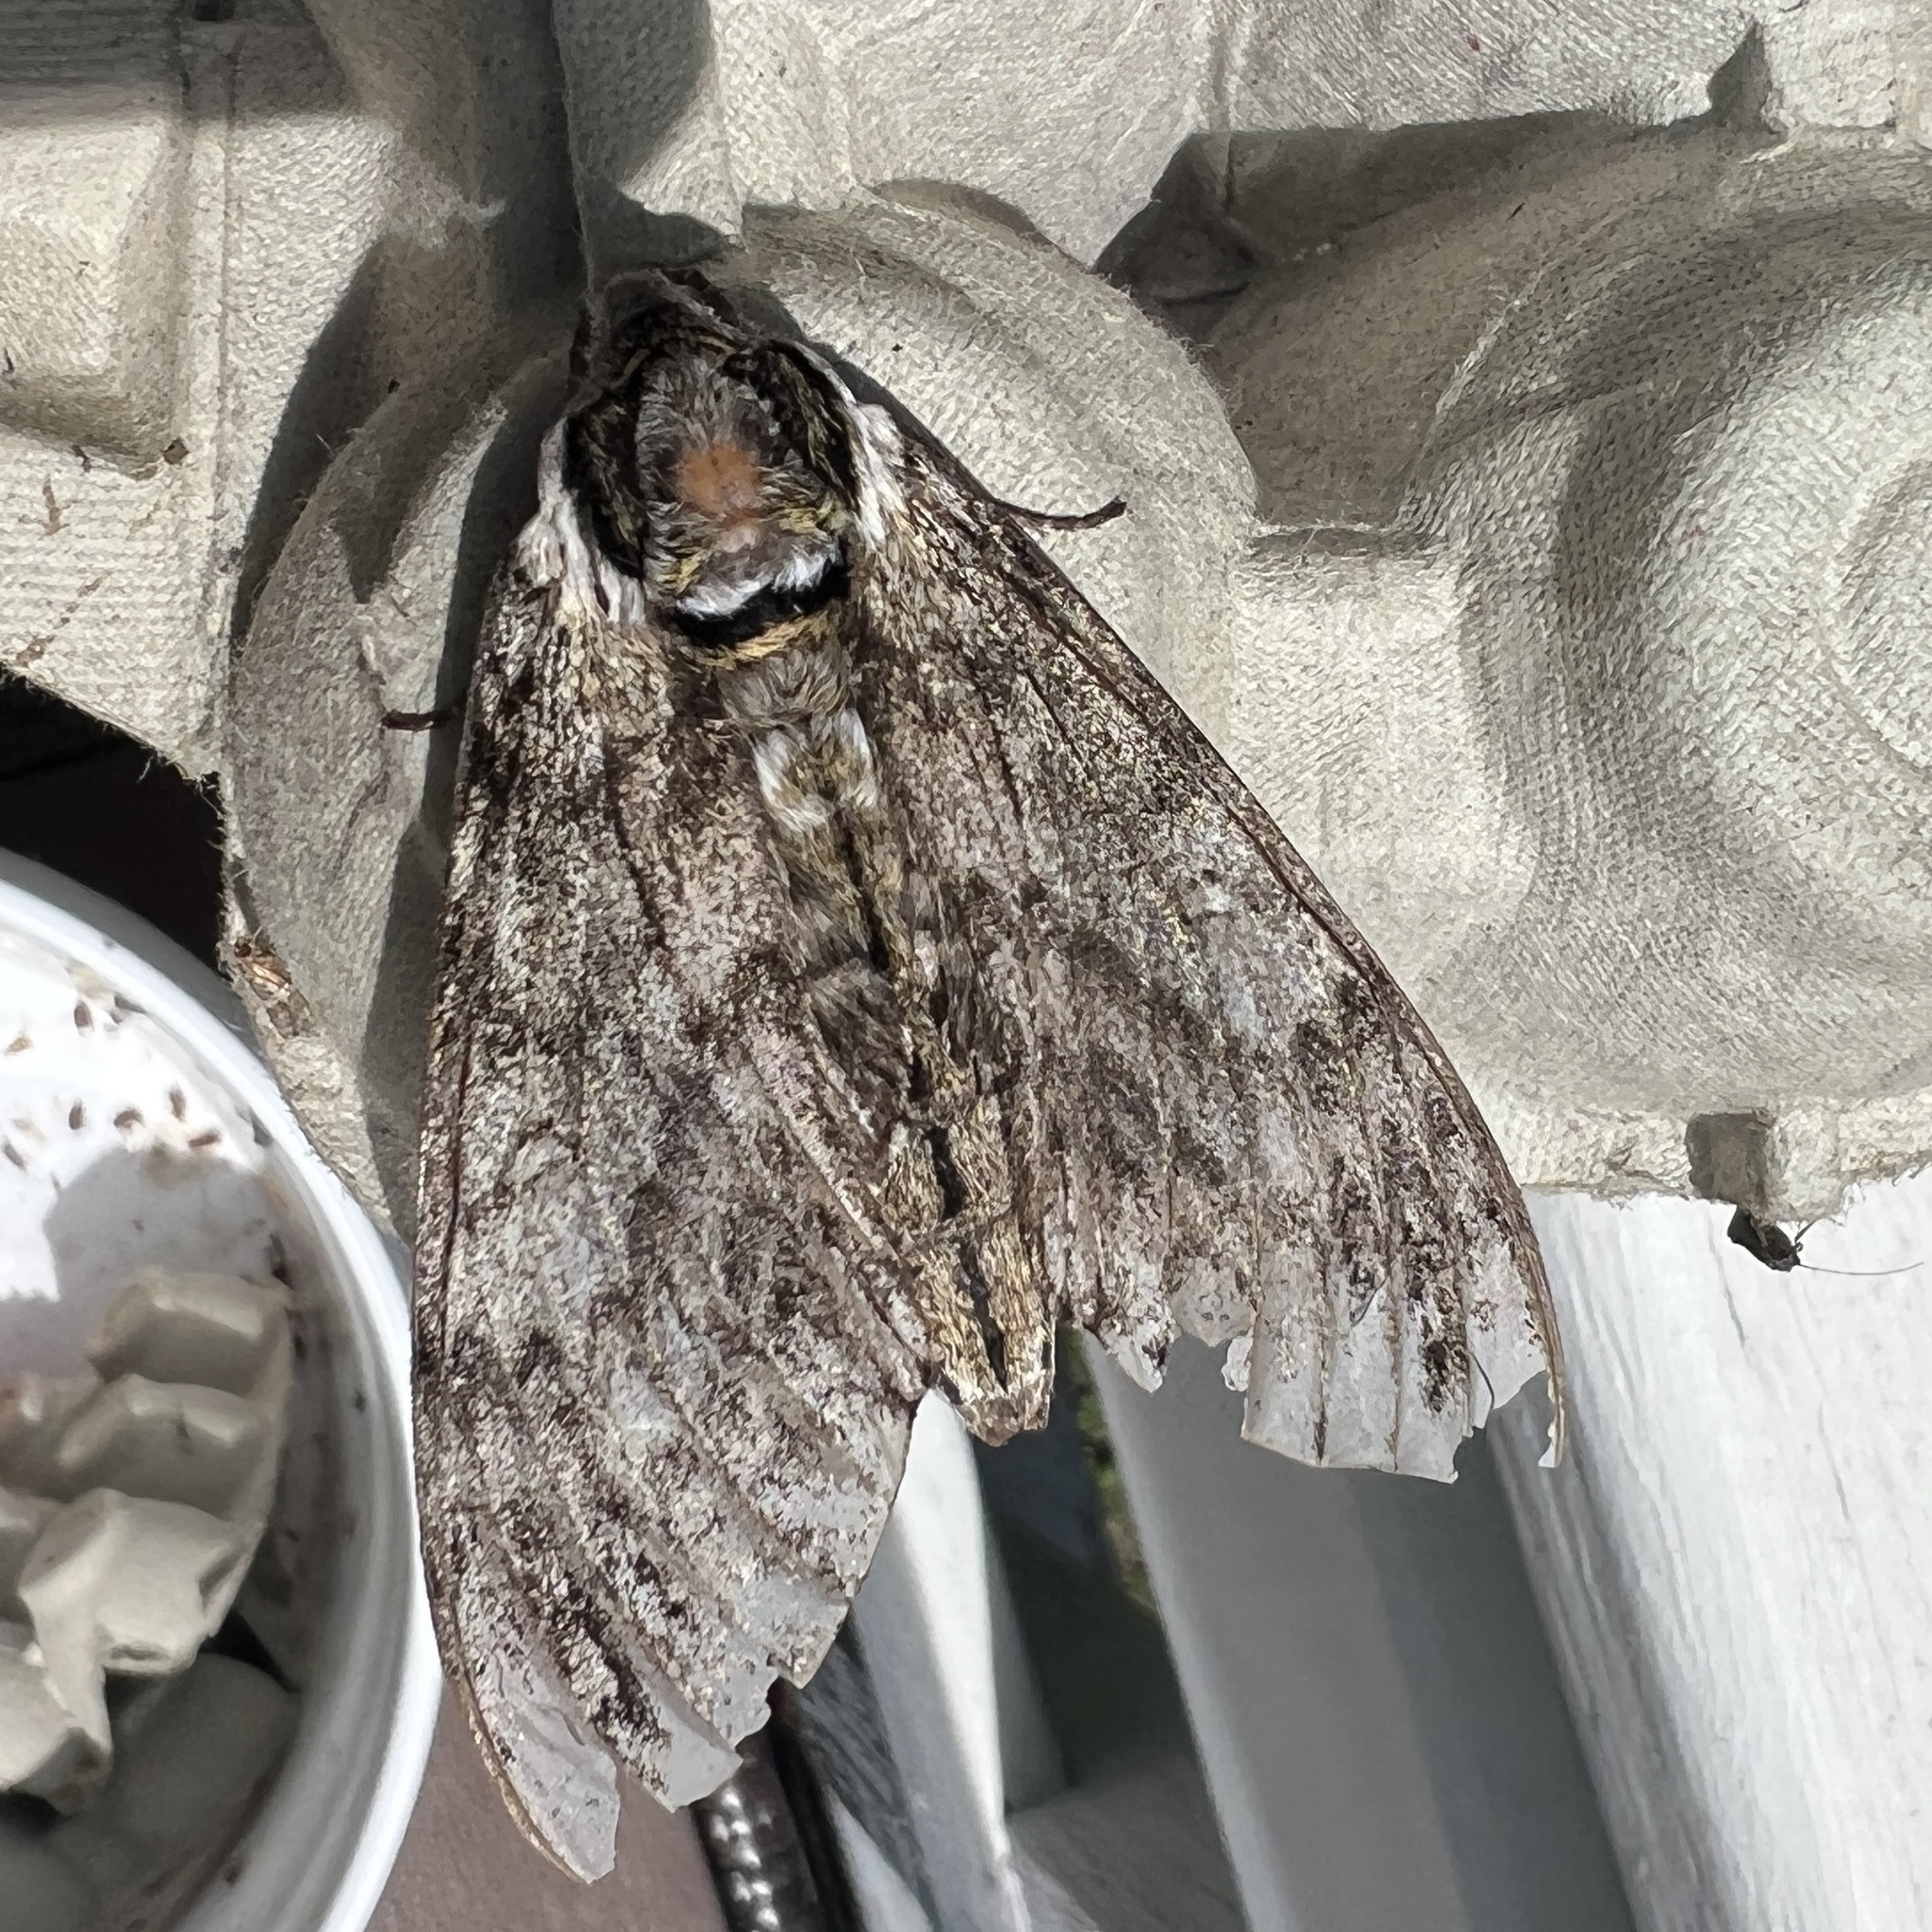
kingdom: Animalia
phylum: Arthropoda
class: Insecta
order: Lepidoptera
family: Sphingidae
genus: Ceratomia
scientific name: Ceratomia undulosa
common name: Waved sphinx
